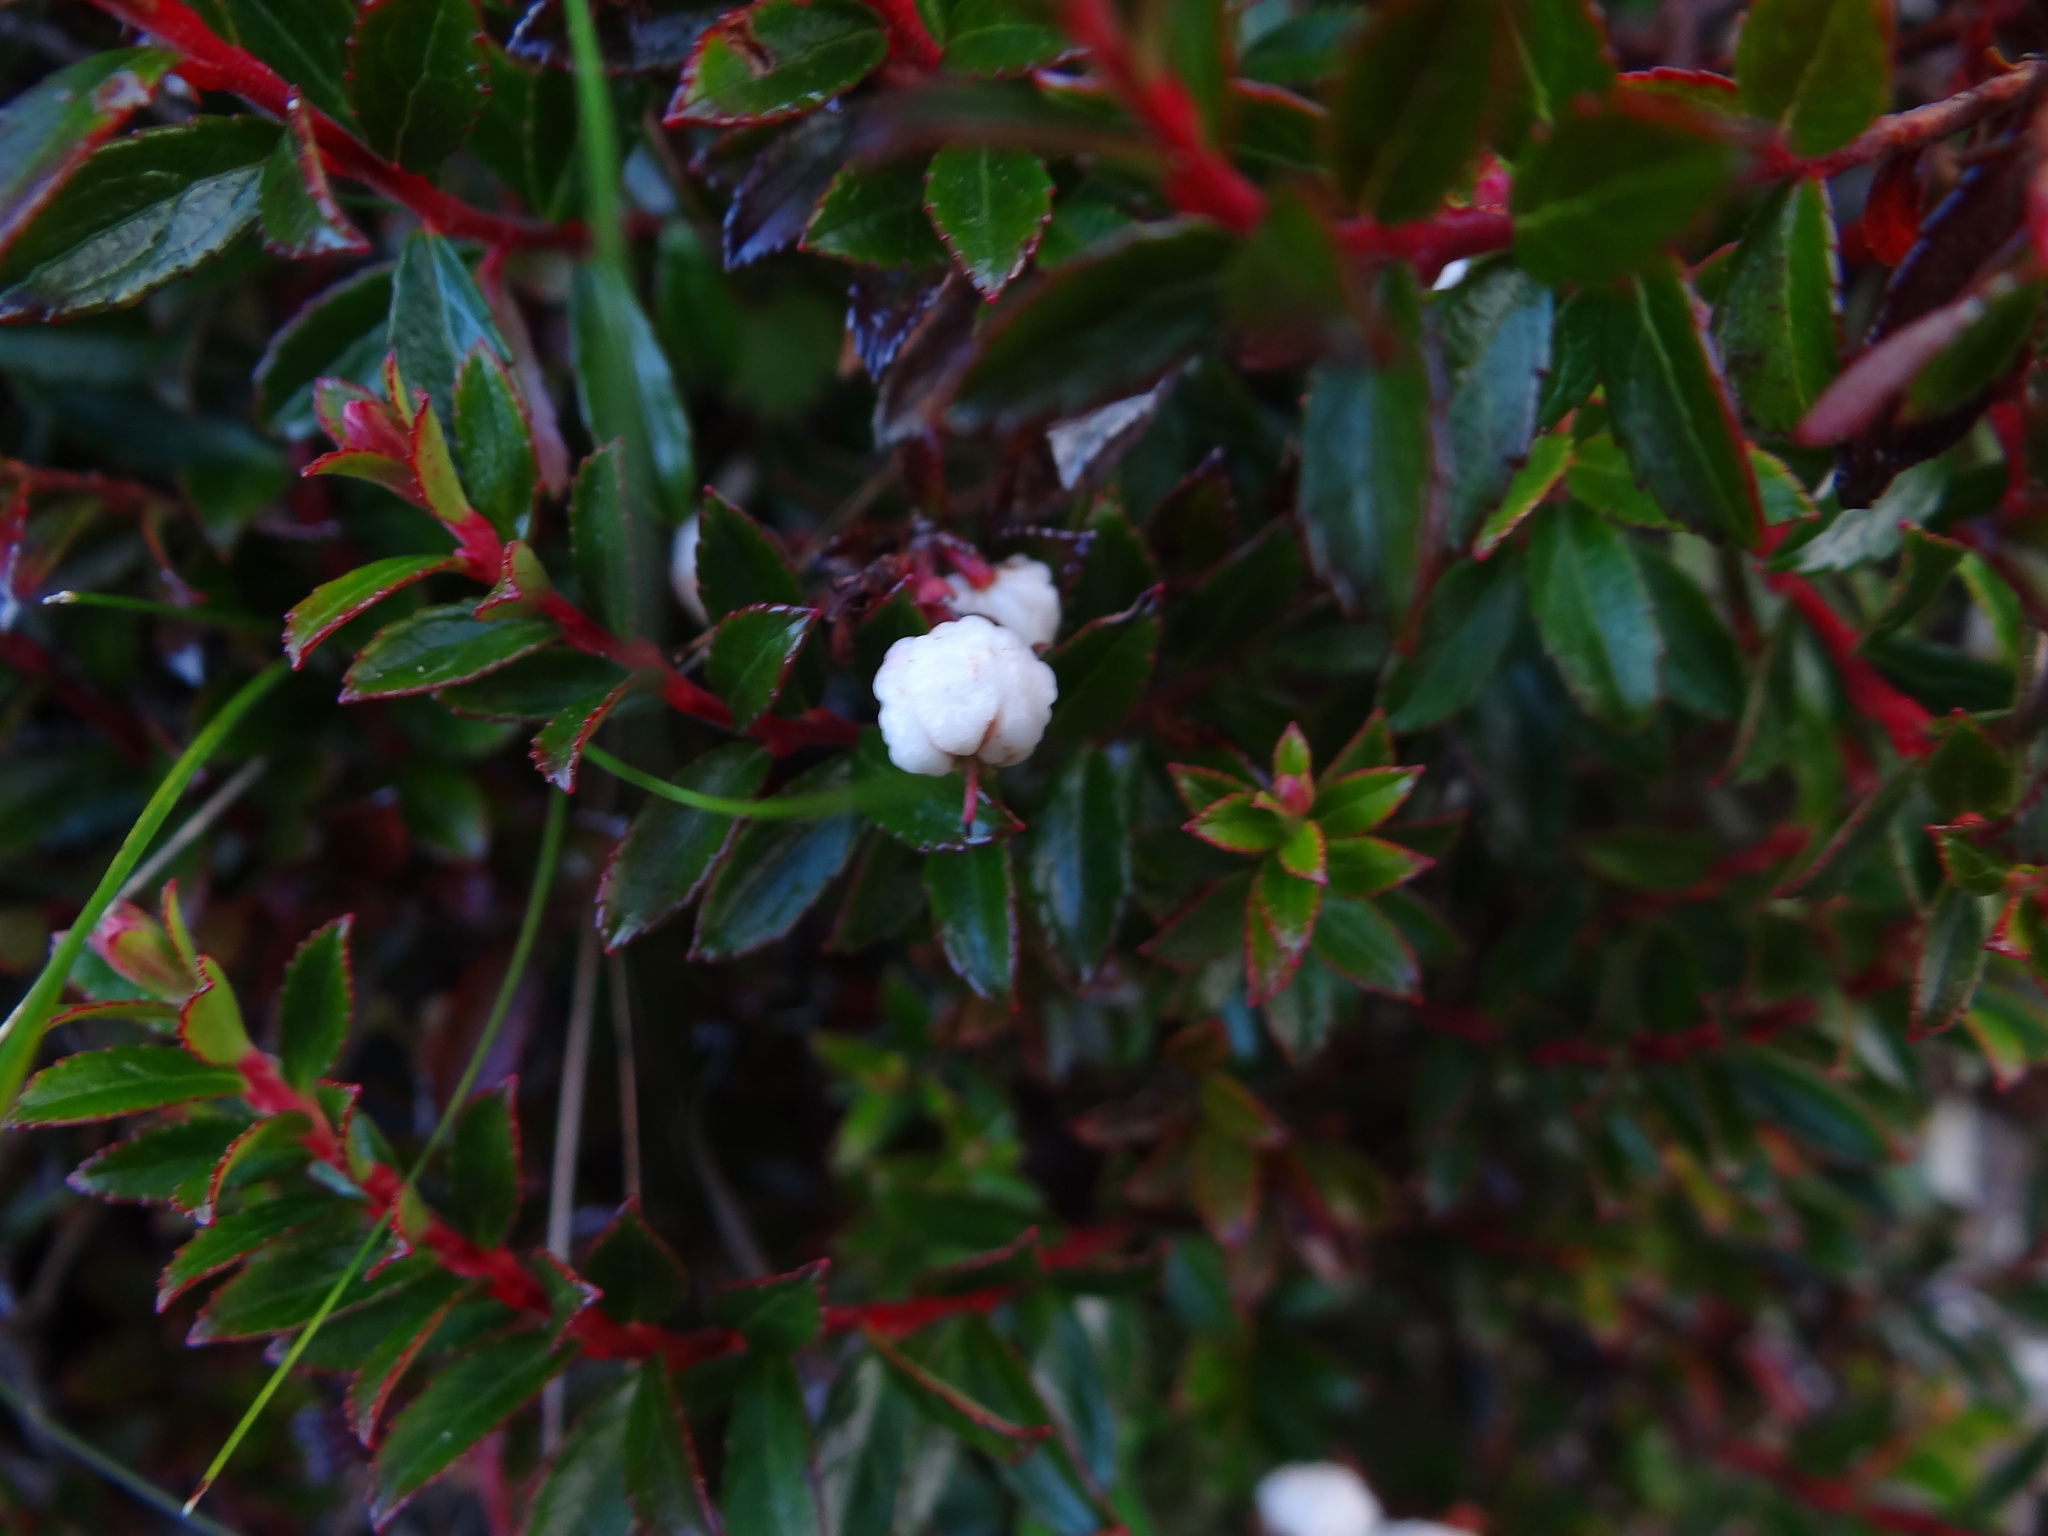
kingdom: Plantae
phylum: Tracheophyta
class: Magnoliopsida
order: Ericales
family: Ericaceae
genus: Gaultheria
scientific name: Gaultheria borneensis
